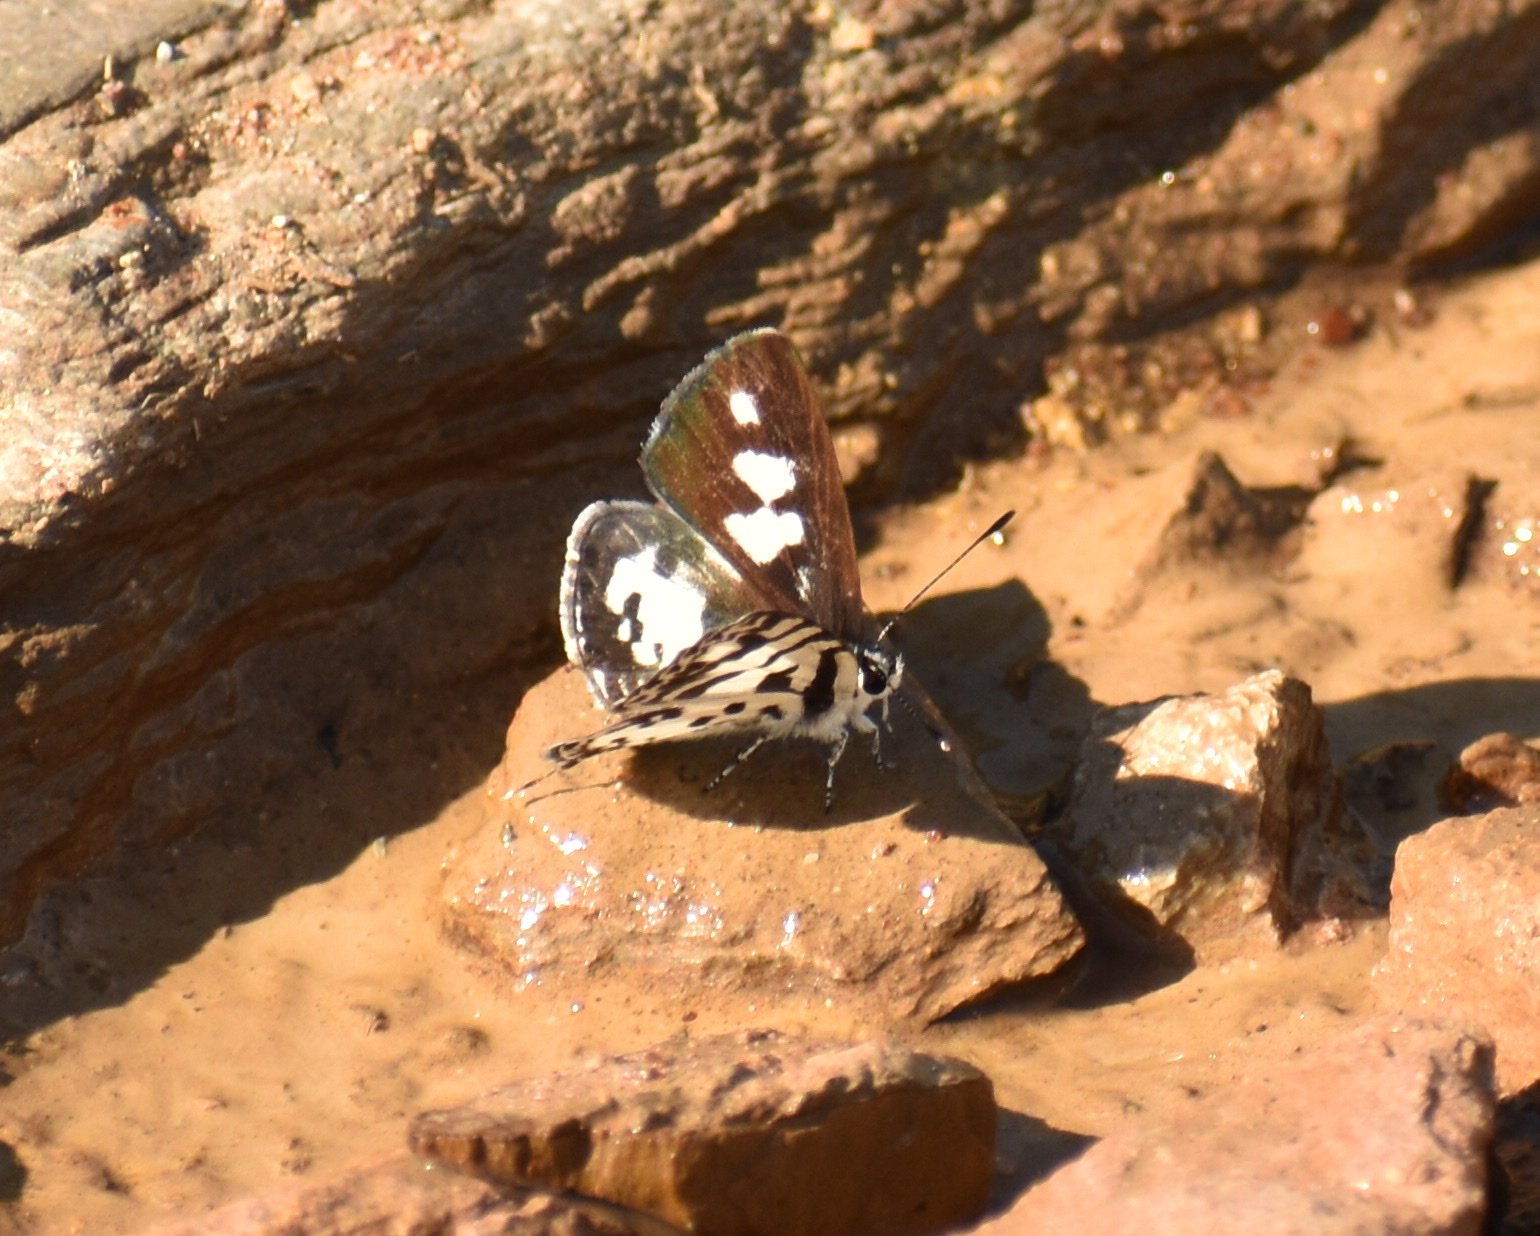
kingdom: Animalia
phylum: Arthropoda
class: Insecta
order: Lepidoptera
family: Lycaenidae
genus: Castalius
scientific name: Castalius melaena
